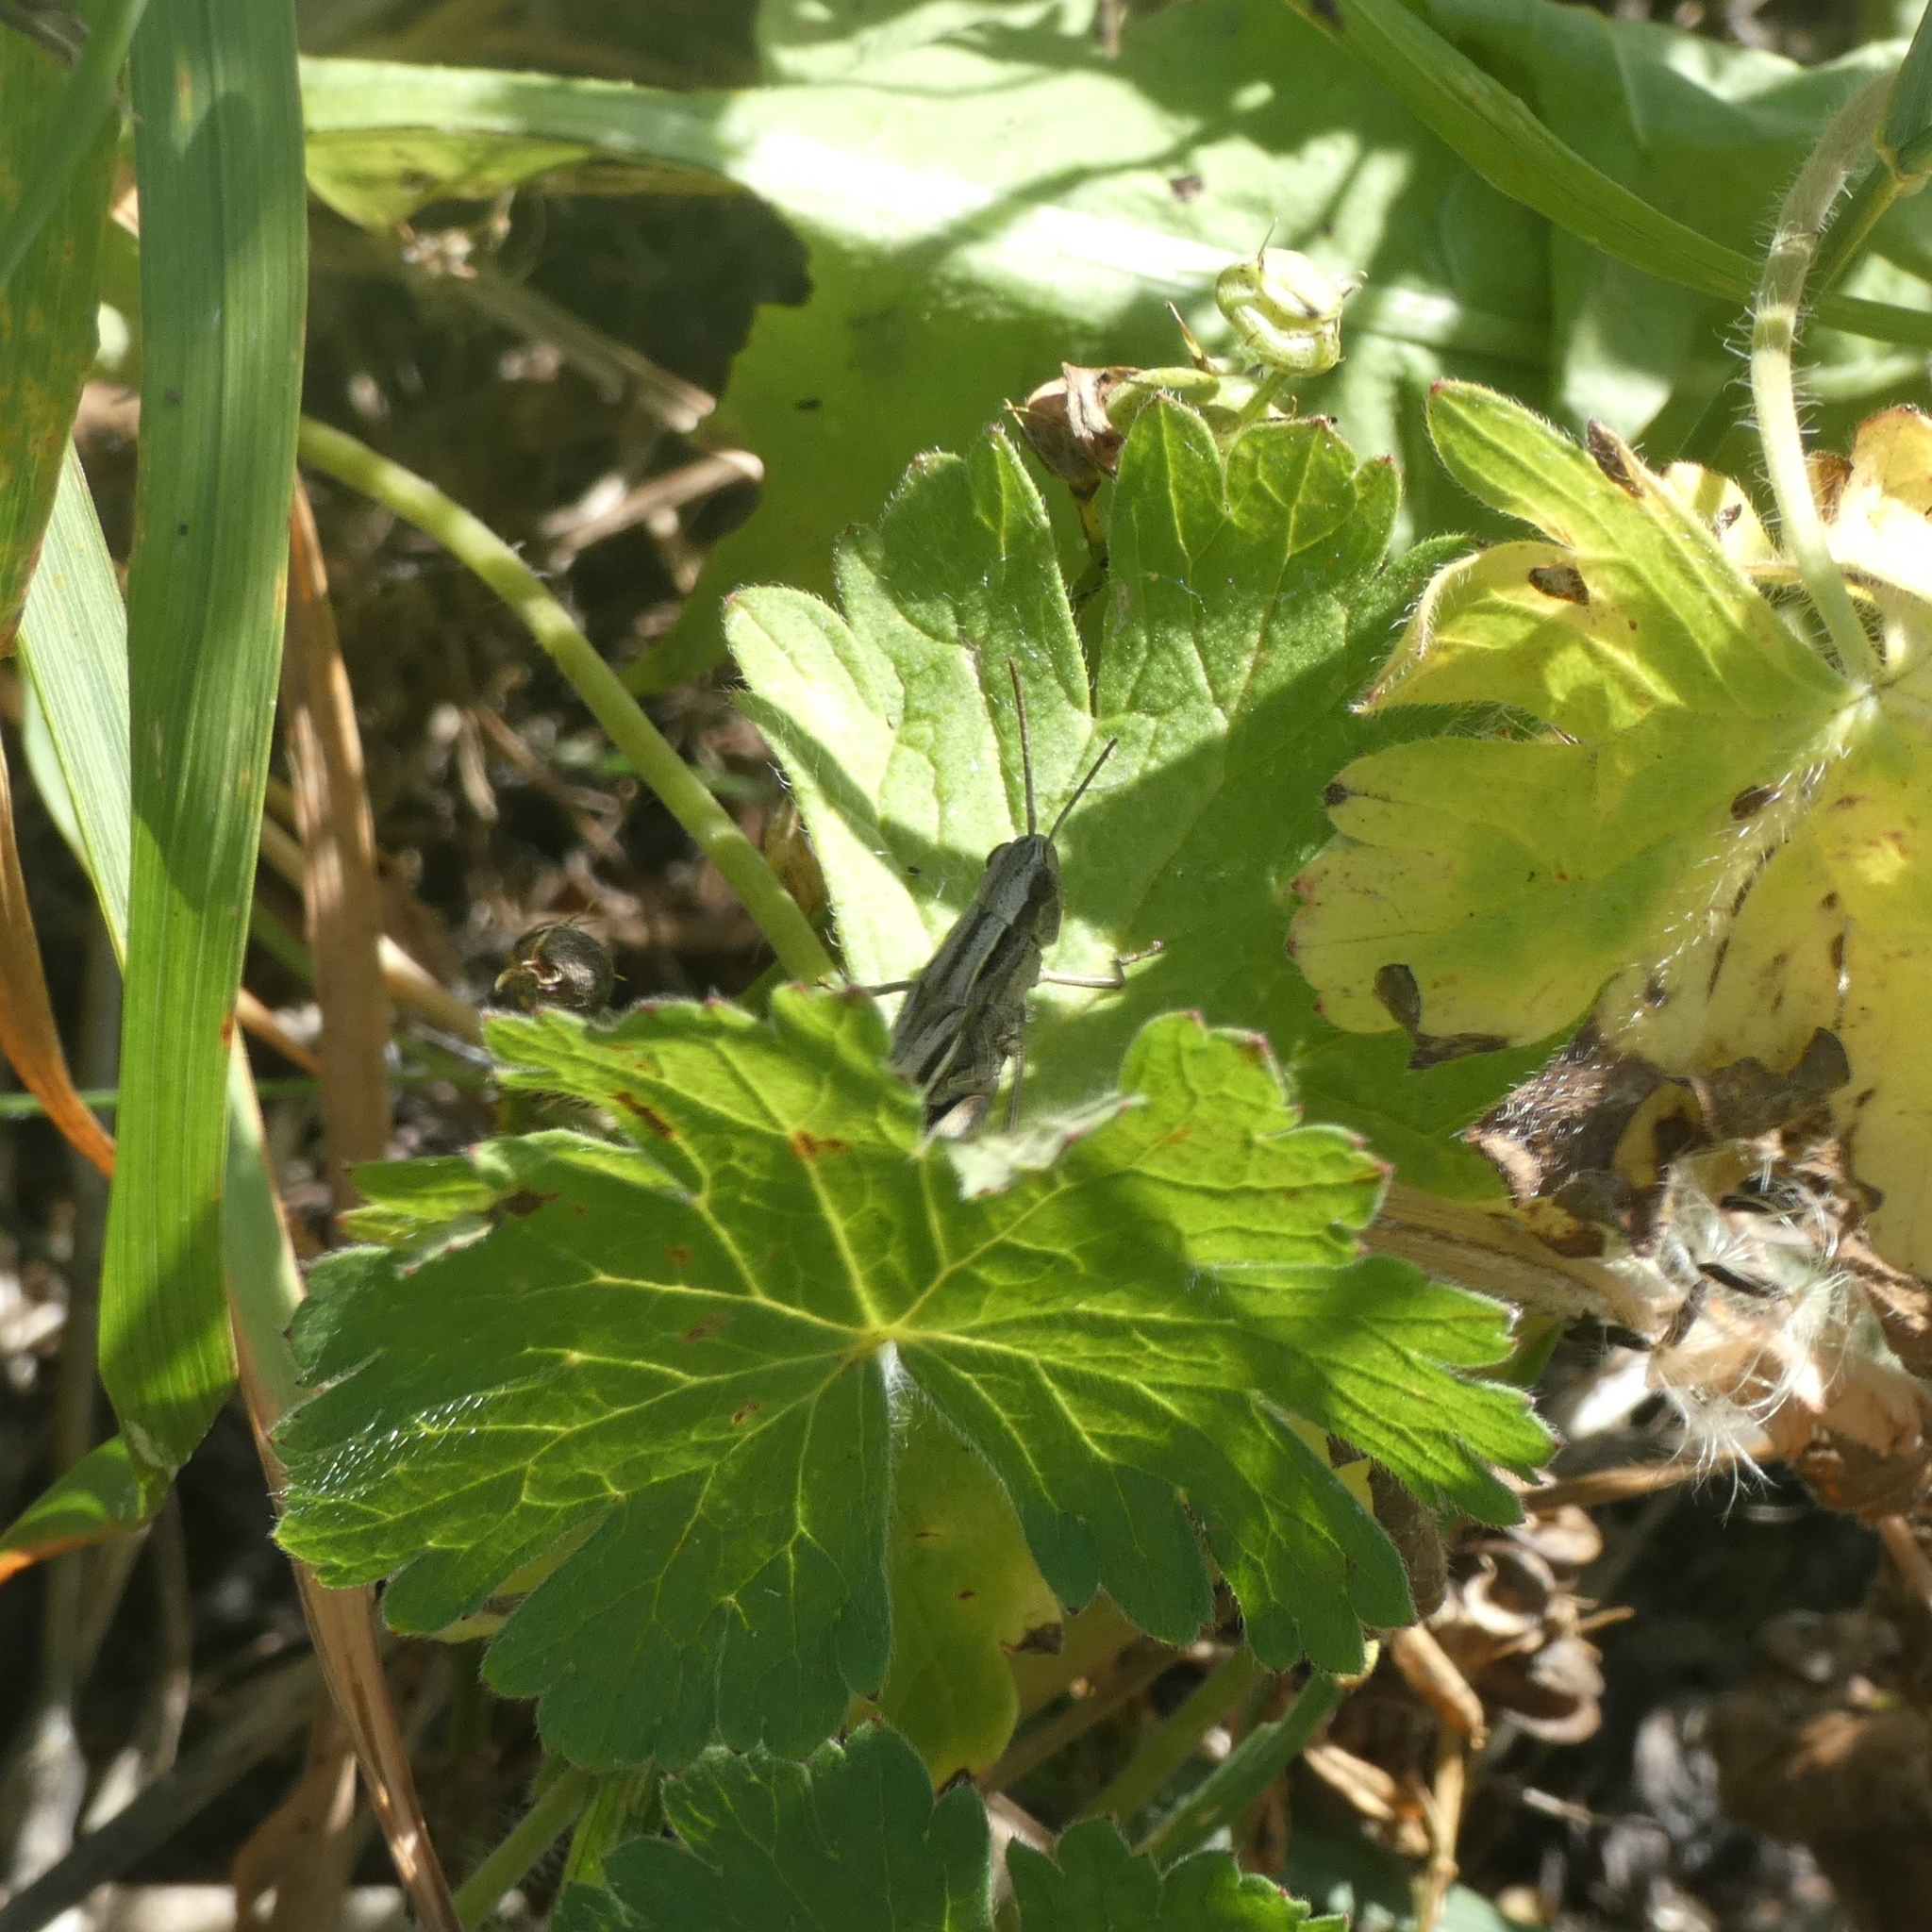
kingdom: Animalia
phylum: Arthropoda
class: Insecta
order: Orthoptera
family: Acrididae
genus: Chorthippus
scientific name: Chorthippus albomarginatus
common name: Lesser marsh grasshopper
